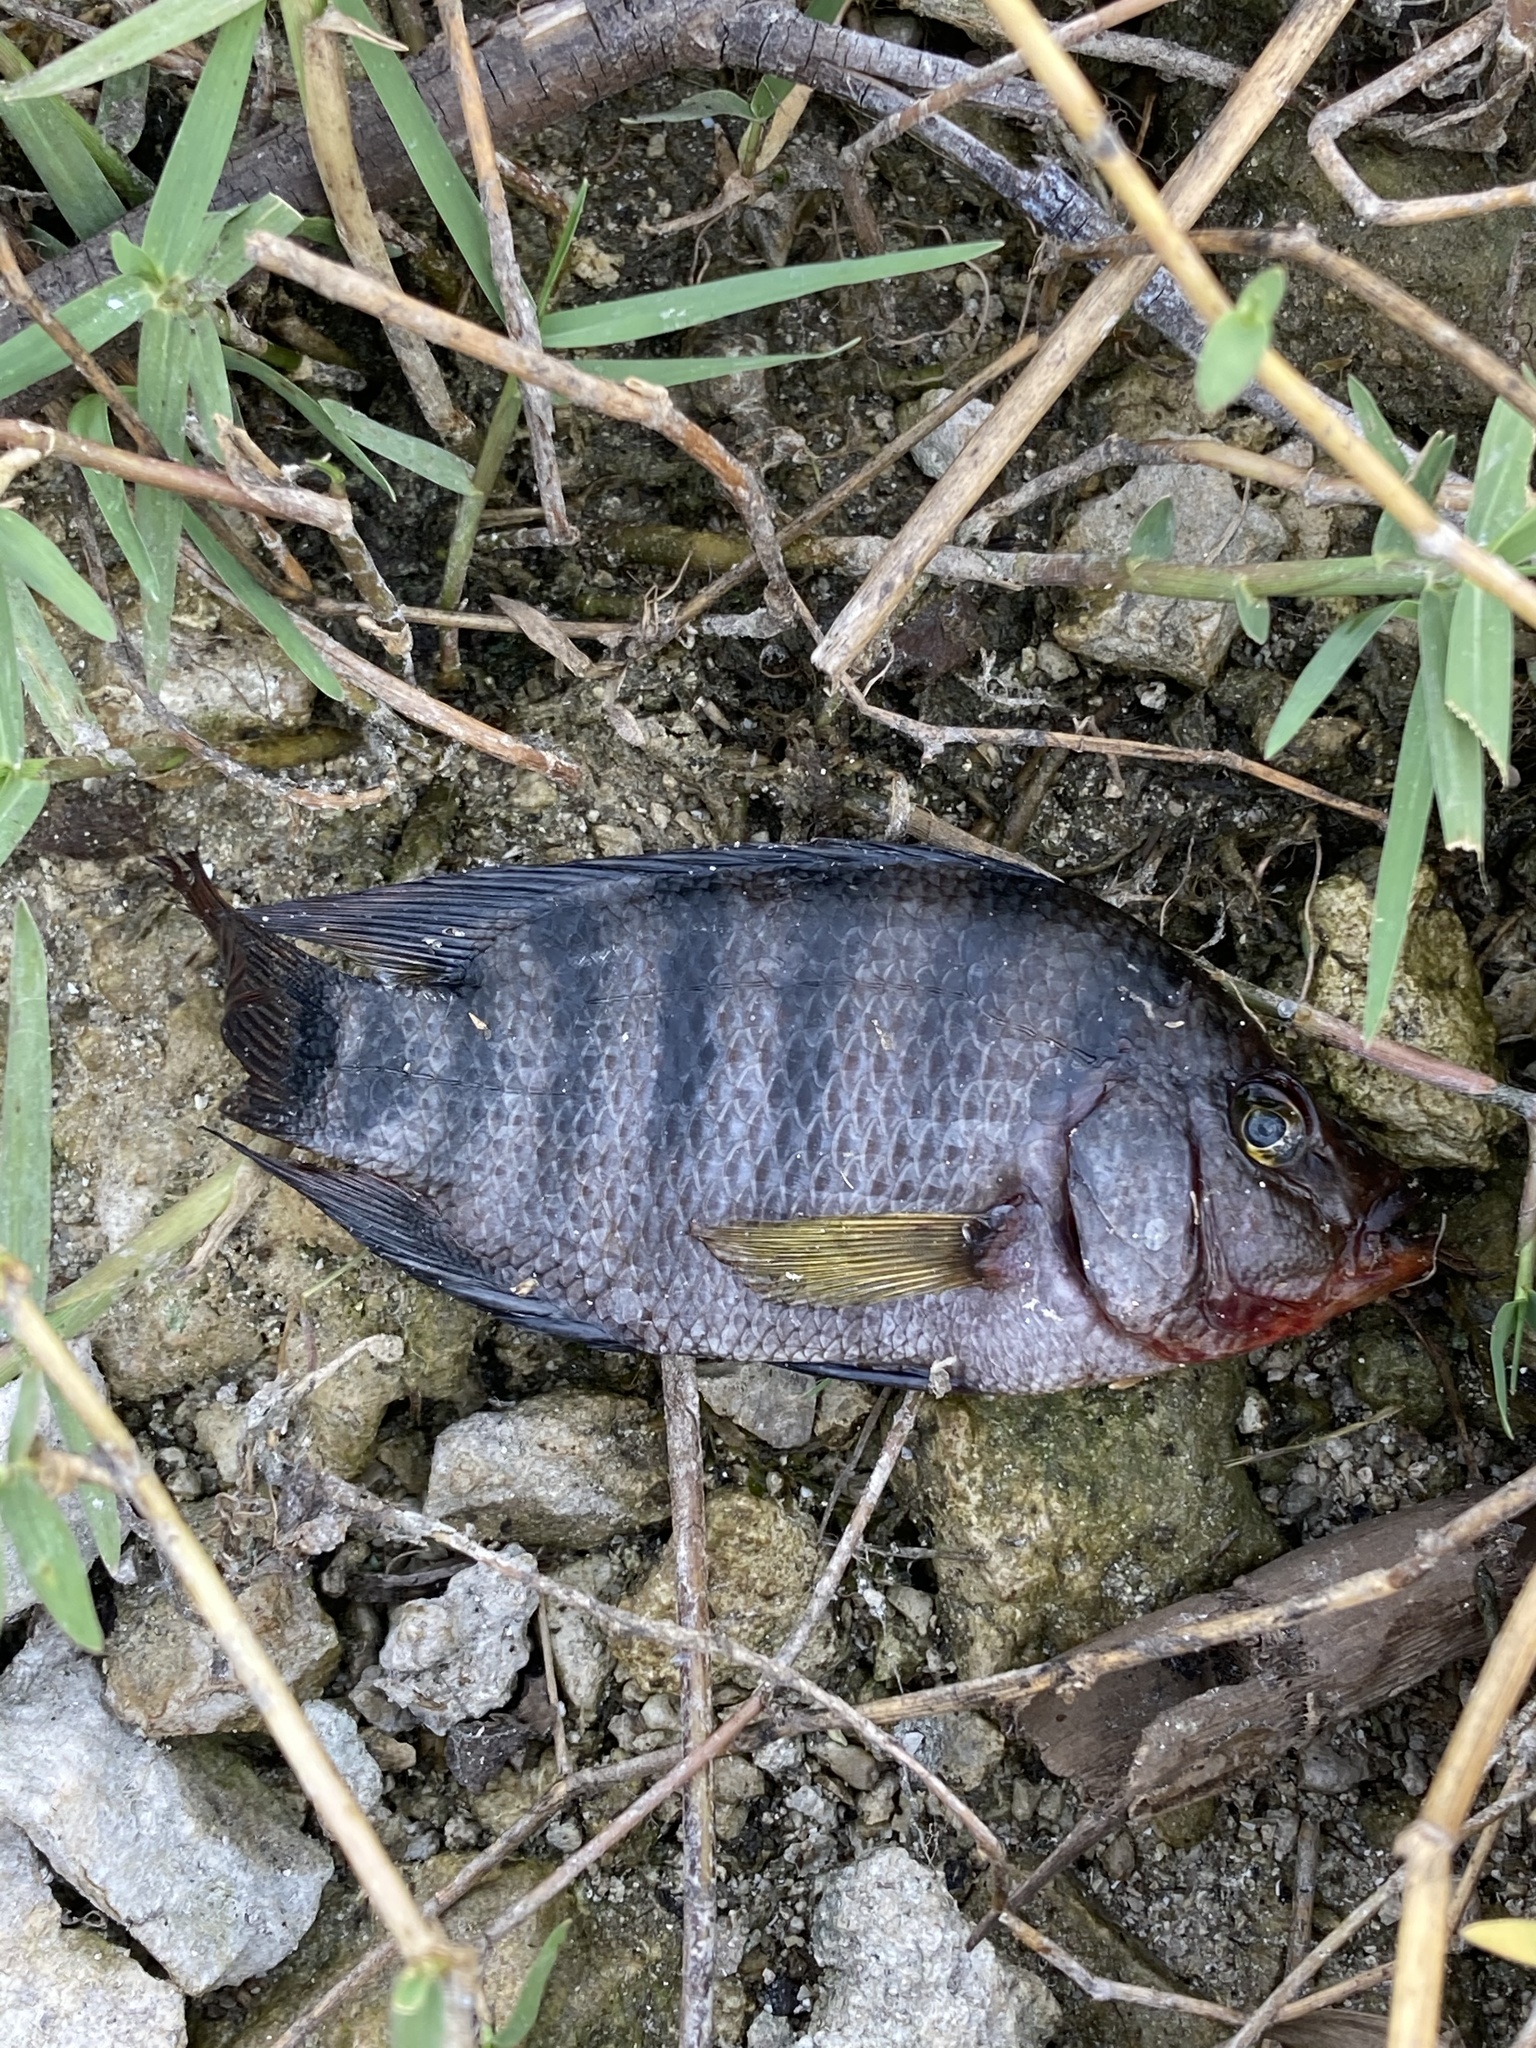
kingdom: Animalia
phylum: Chordata
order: Perciformes
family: Cichlidae
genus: Mayaheros
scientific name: Mayaheros urophthalmus
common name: Mayan cichlid
